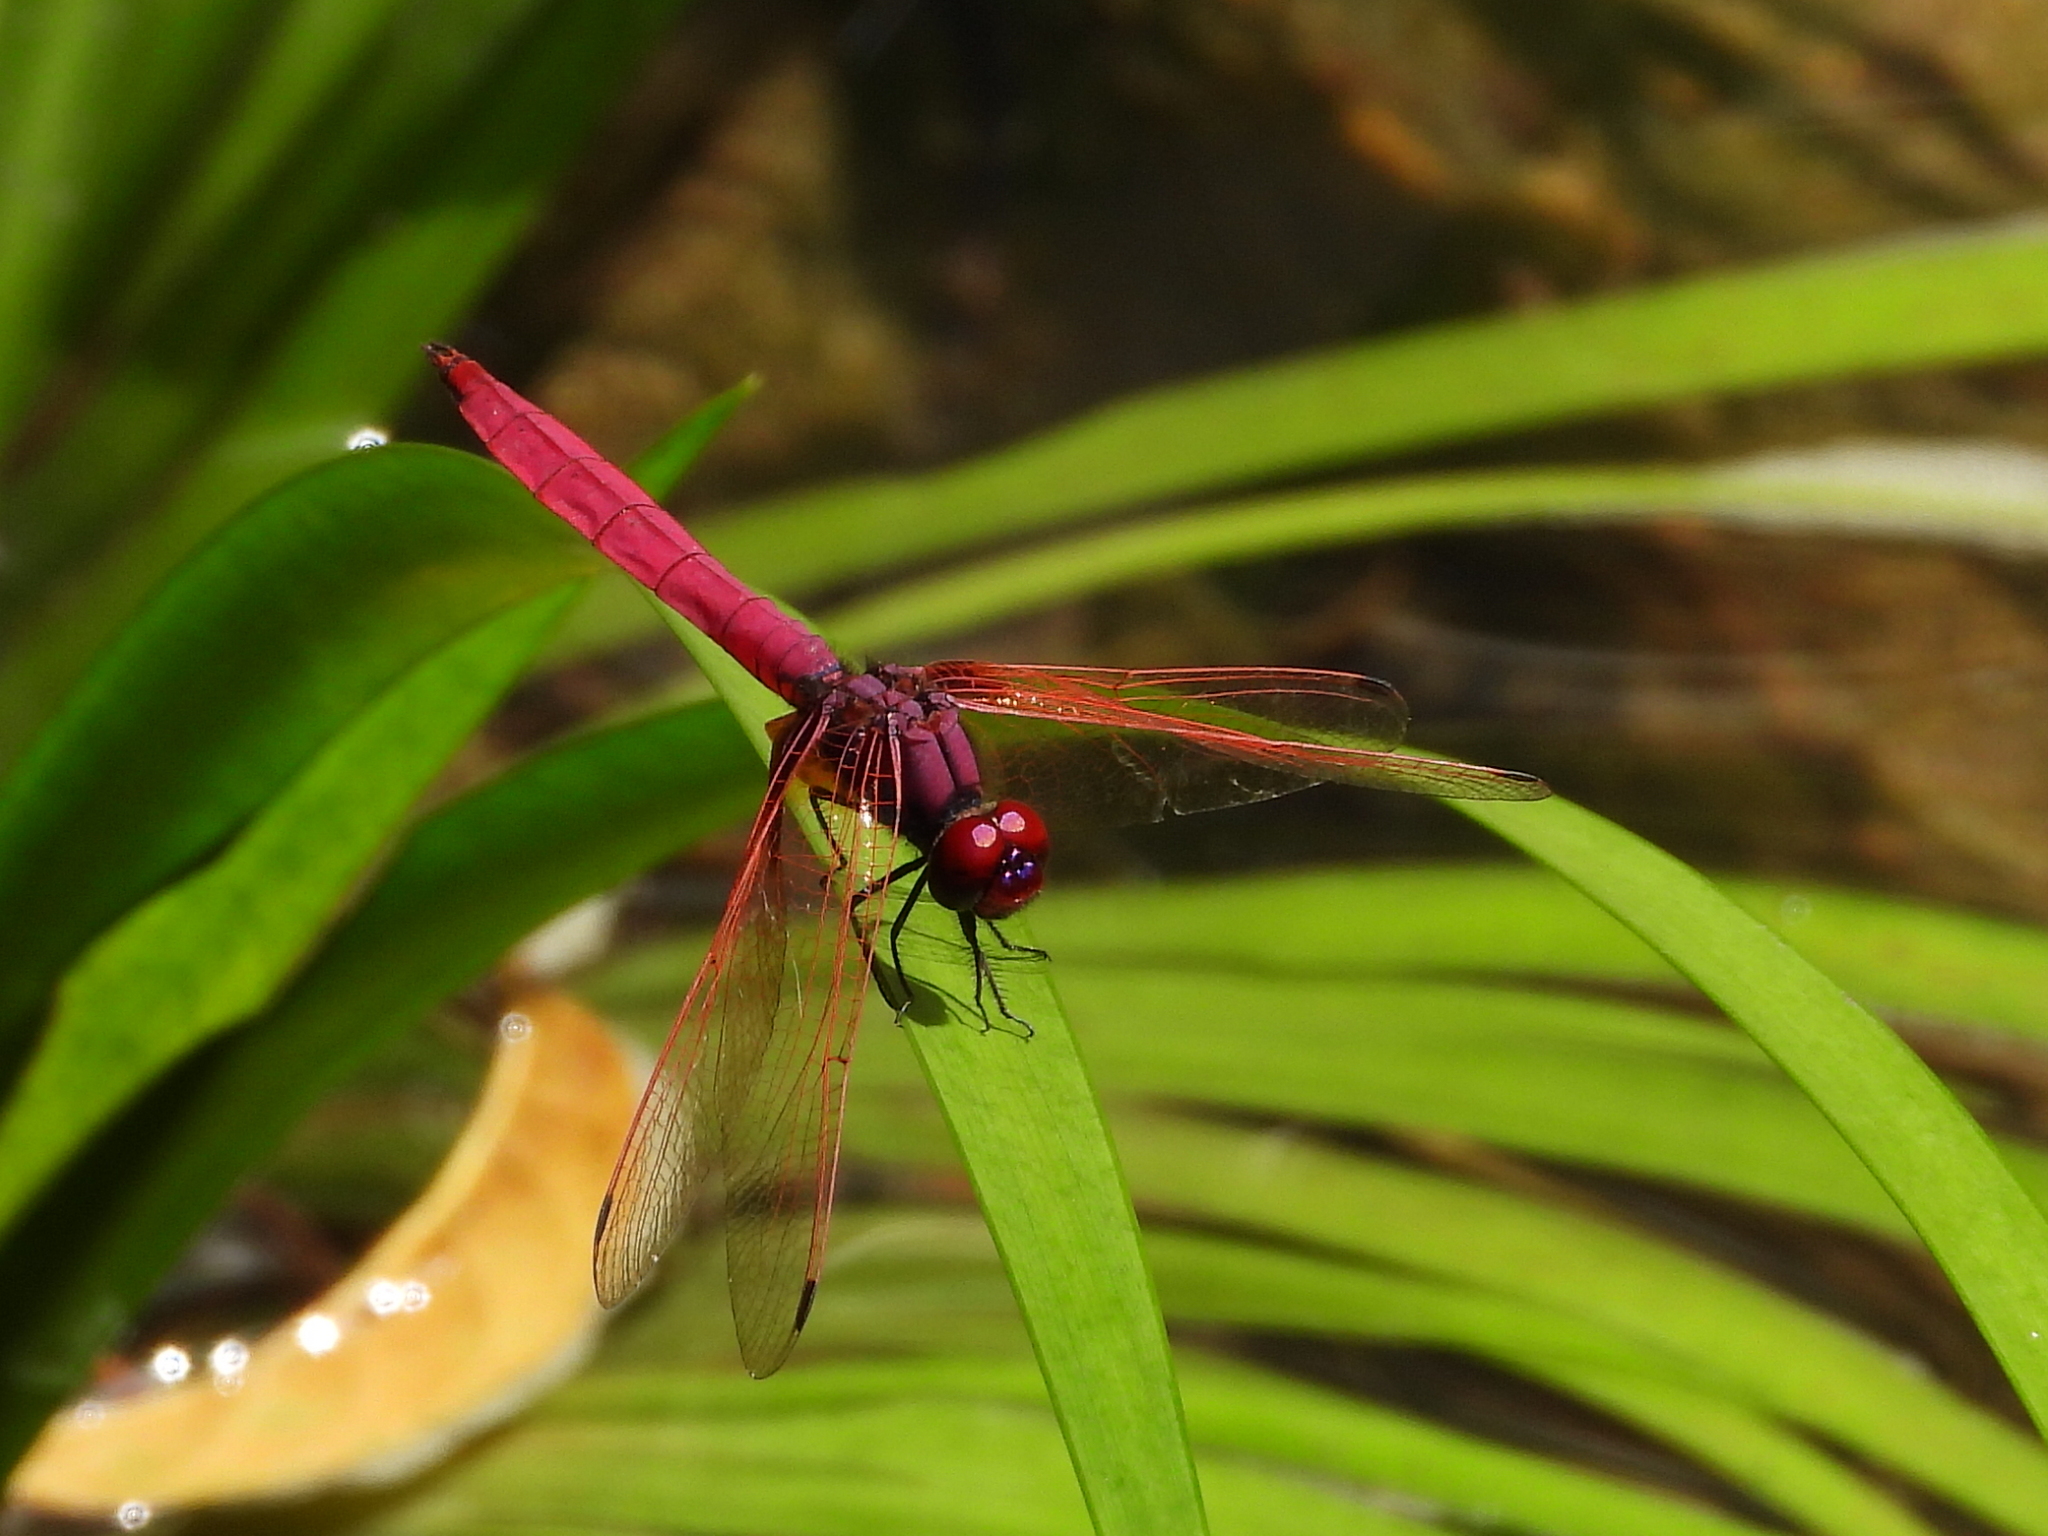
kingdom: Animalia
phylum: Arthropoda
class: Insecta
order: Odonata
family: Libellulidae
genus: Trithemis
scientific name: Trithemis aurora
